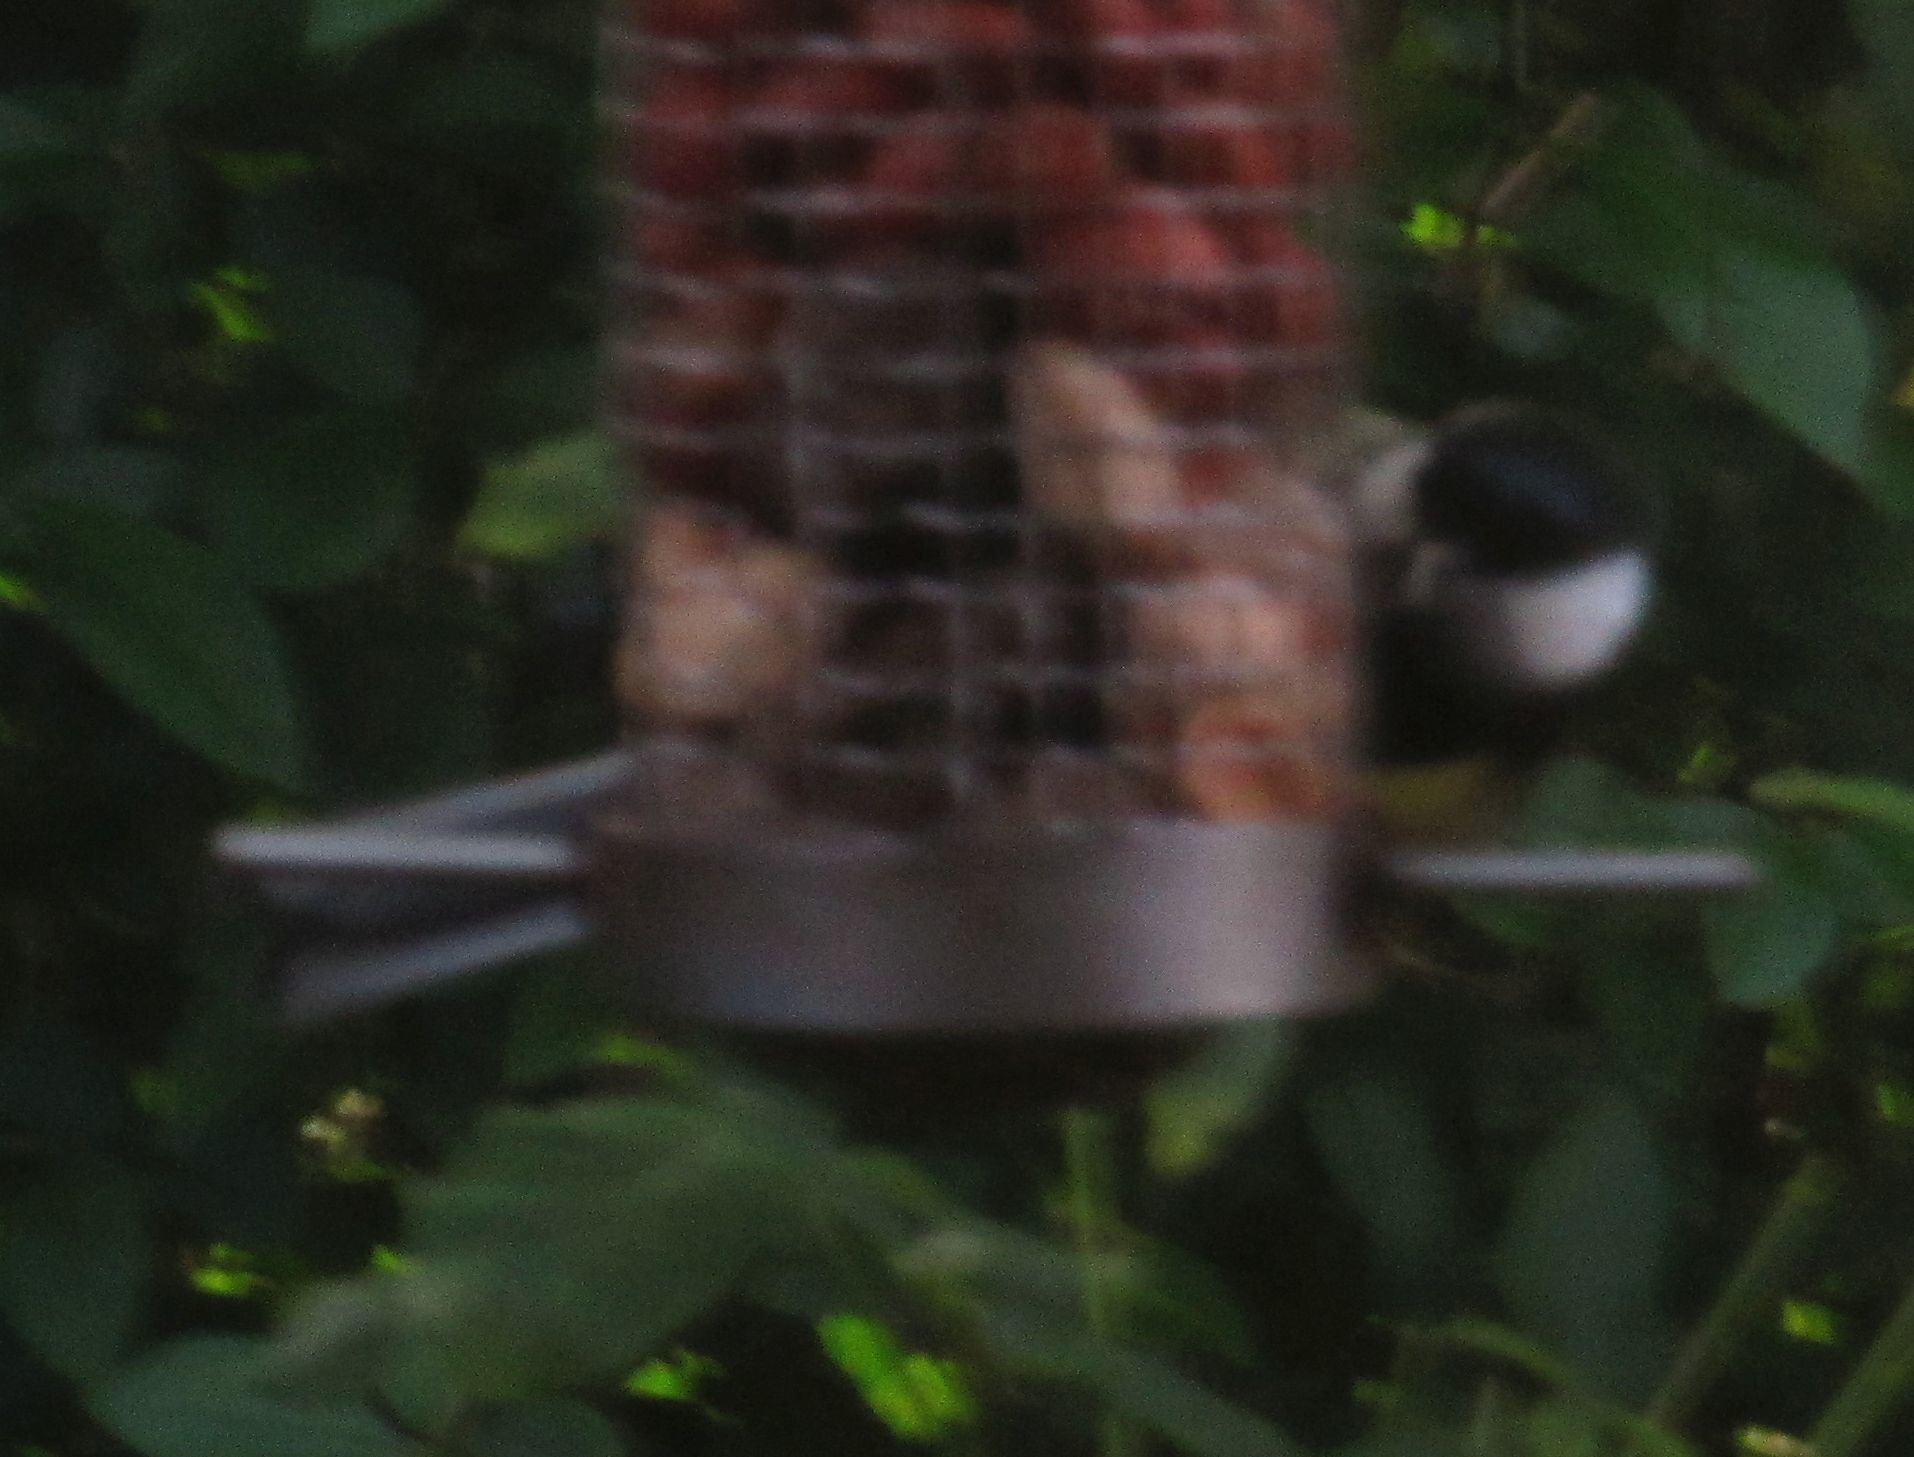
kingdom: Animalia
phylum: Chordata
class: Aves
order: Passeriformes
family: Paridae
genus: Parus
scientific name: Parus major
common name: Great tit
